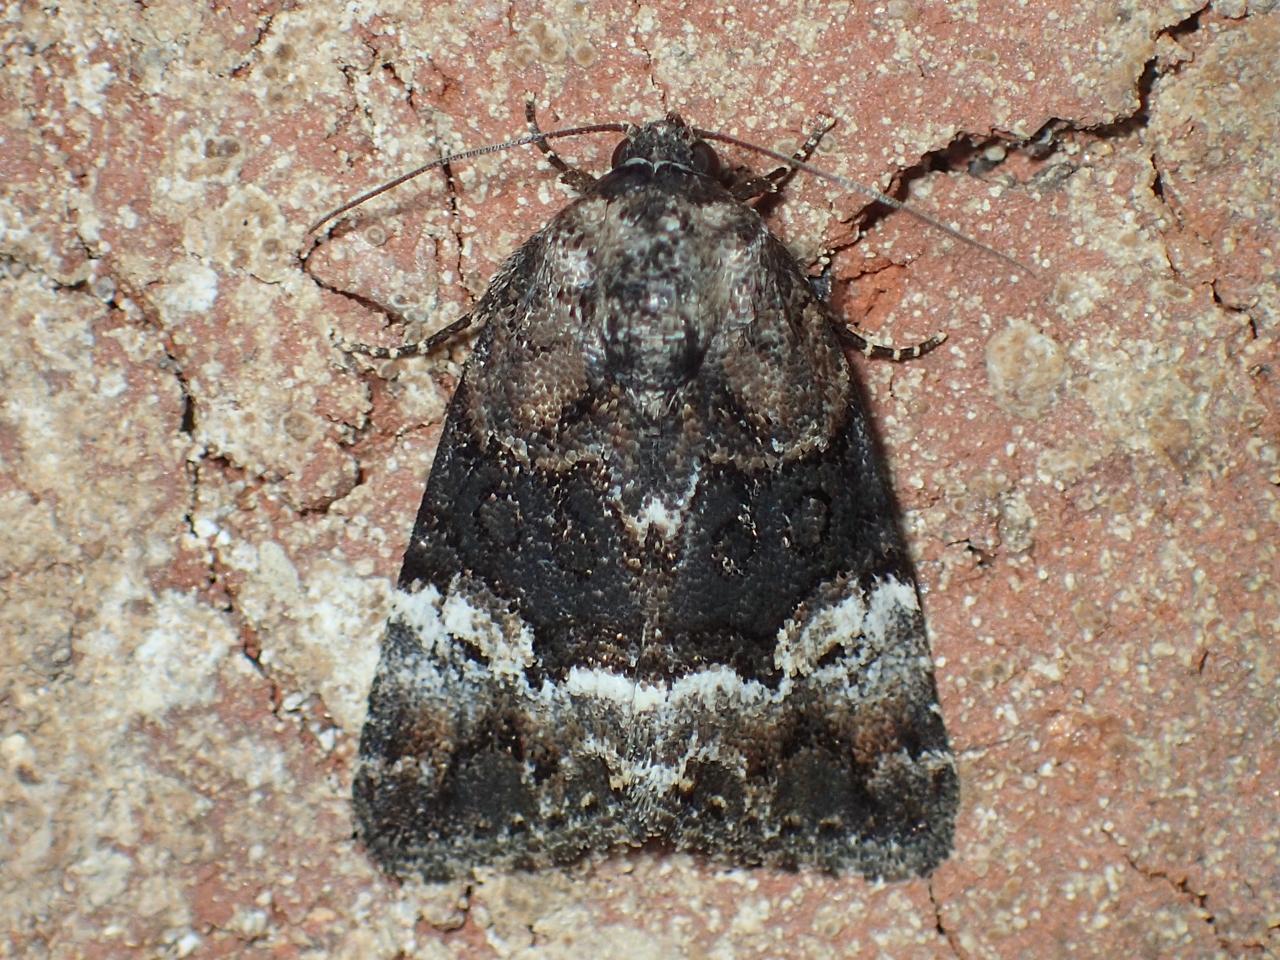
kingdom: Animalia
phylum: Arthropoda
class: Insecta
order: Lepidoptera
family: Noctuidae
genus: Elaphria
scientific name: Elaphria georgei
